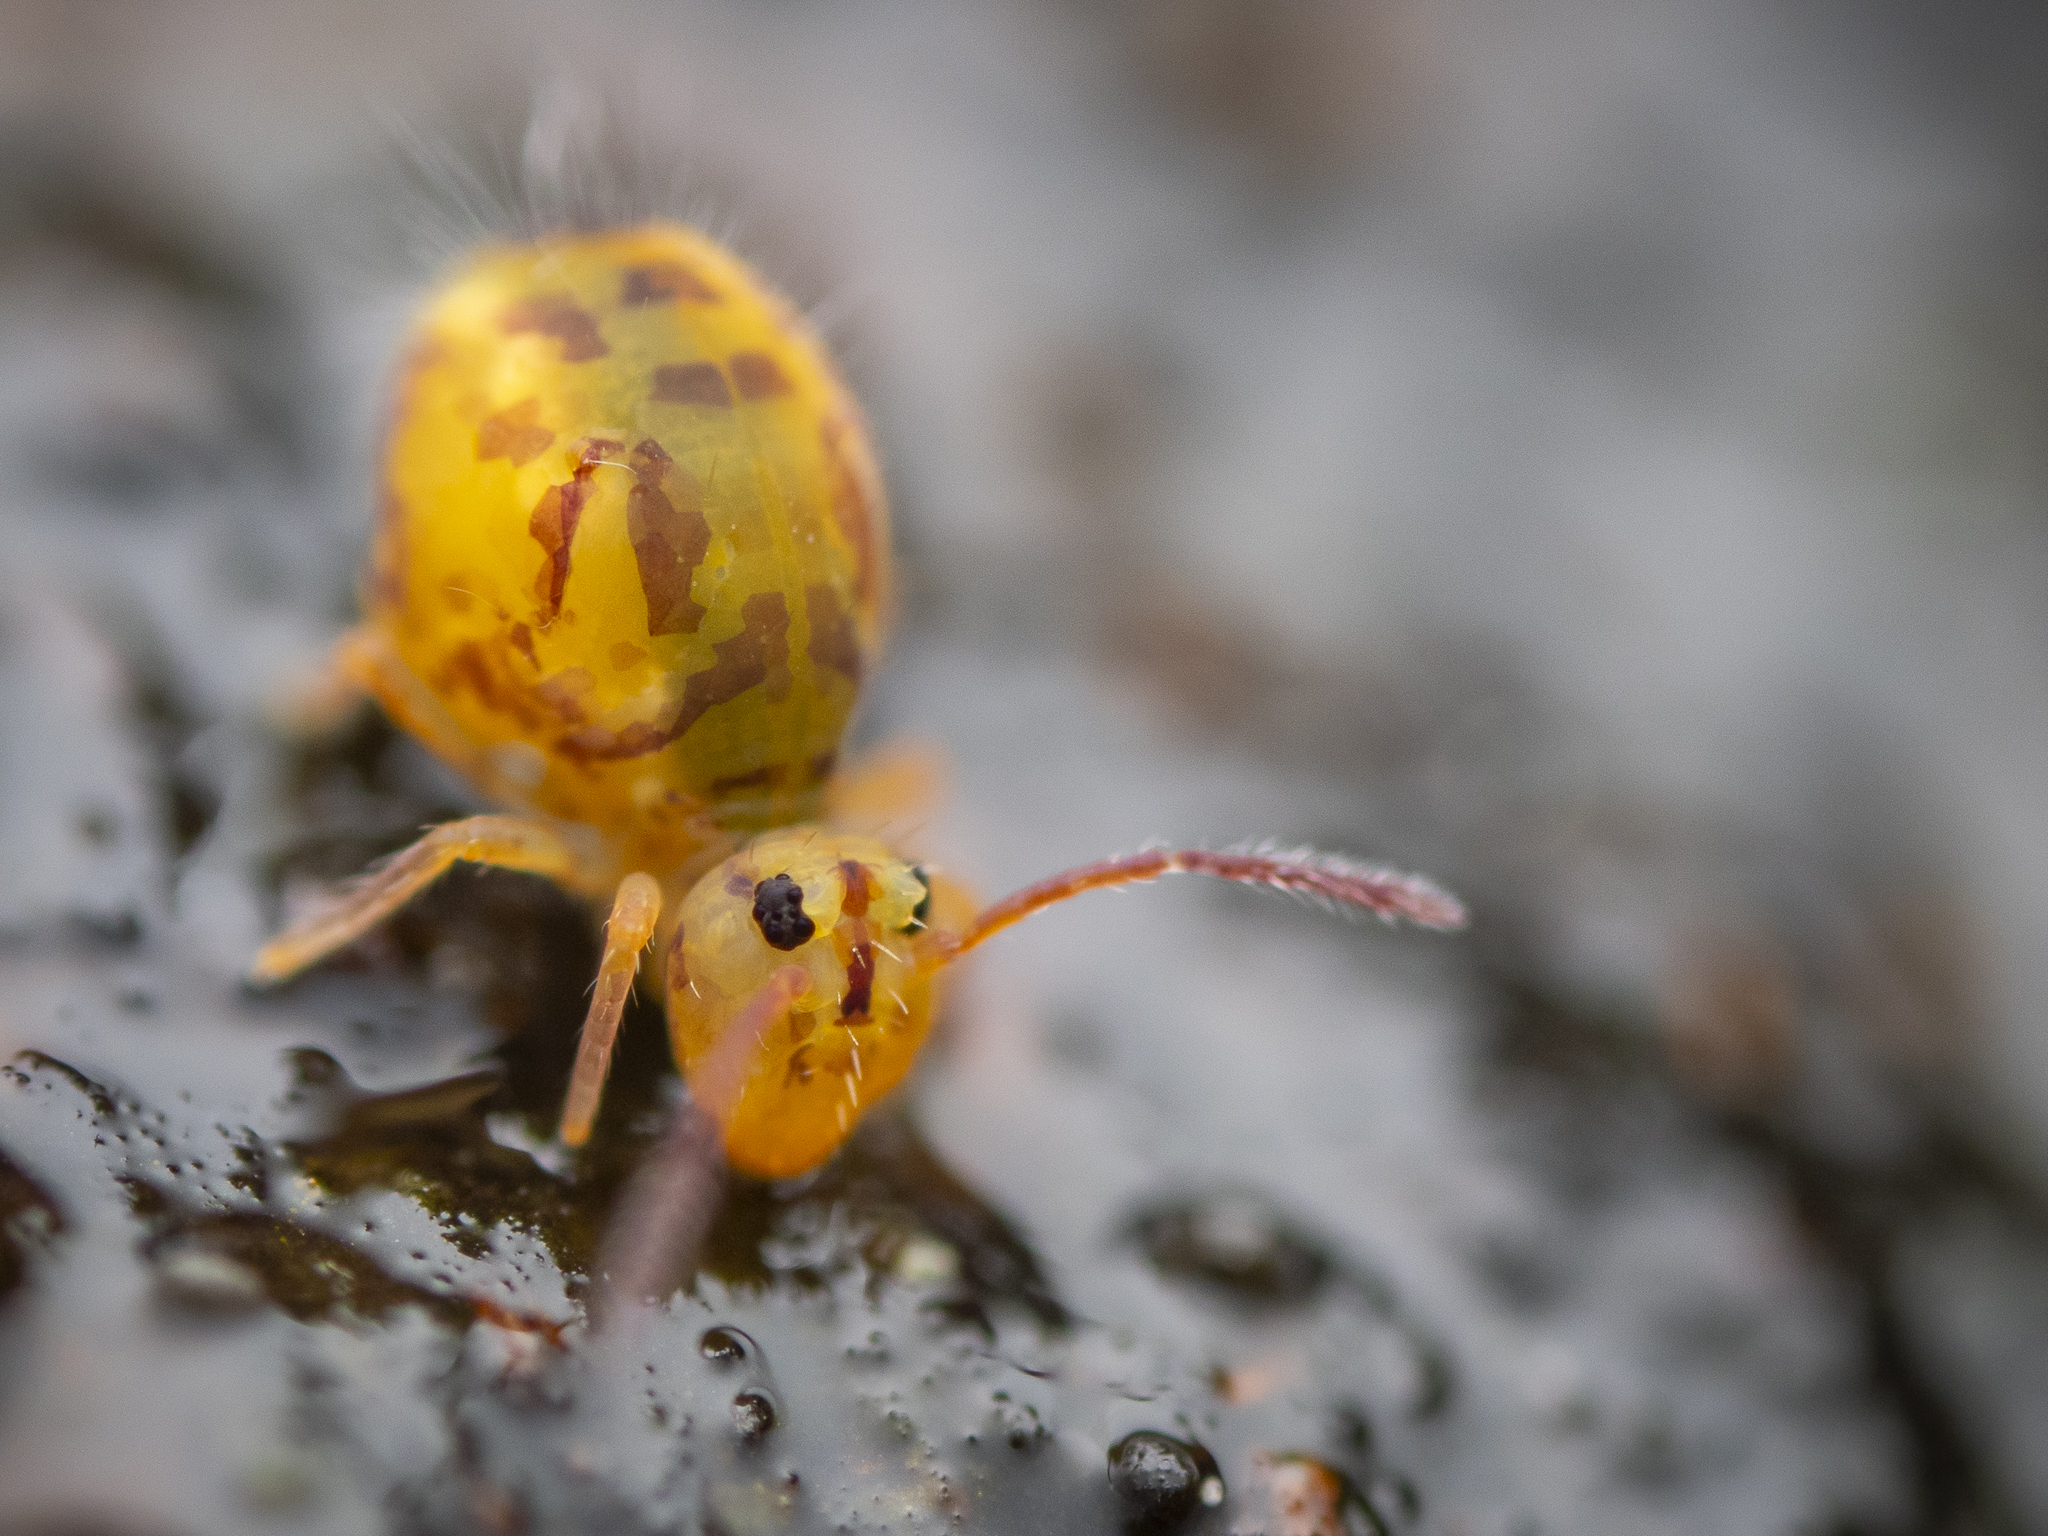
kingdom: Animalia
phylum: Arthropoda
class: Collembola
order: Symphypleona
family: Dicyrtomidae
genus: Dicyrtomina
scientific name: Dicyrtomina ornata
